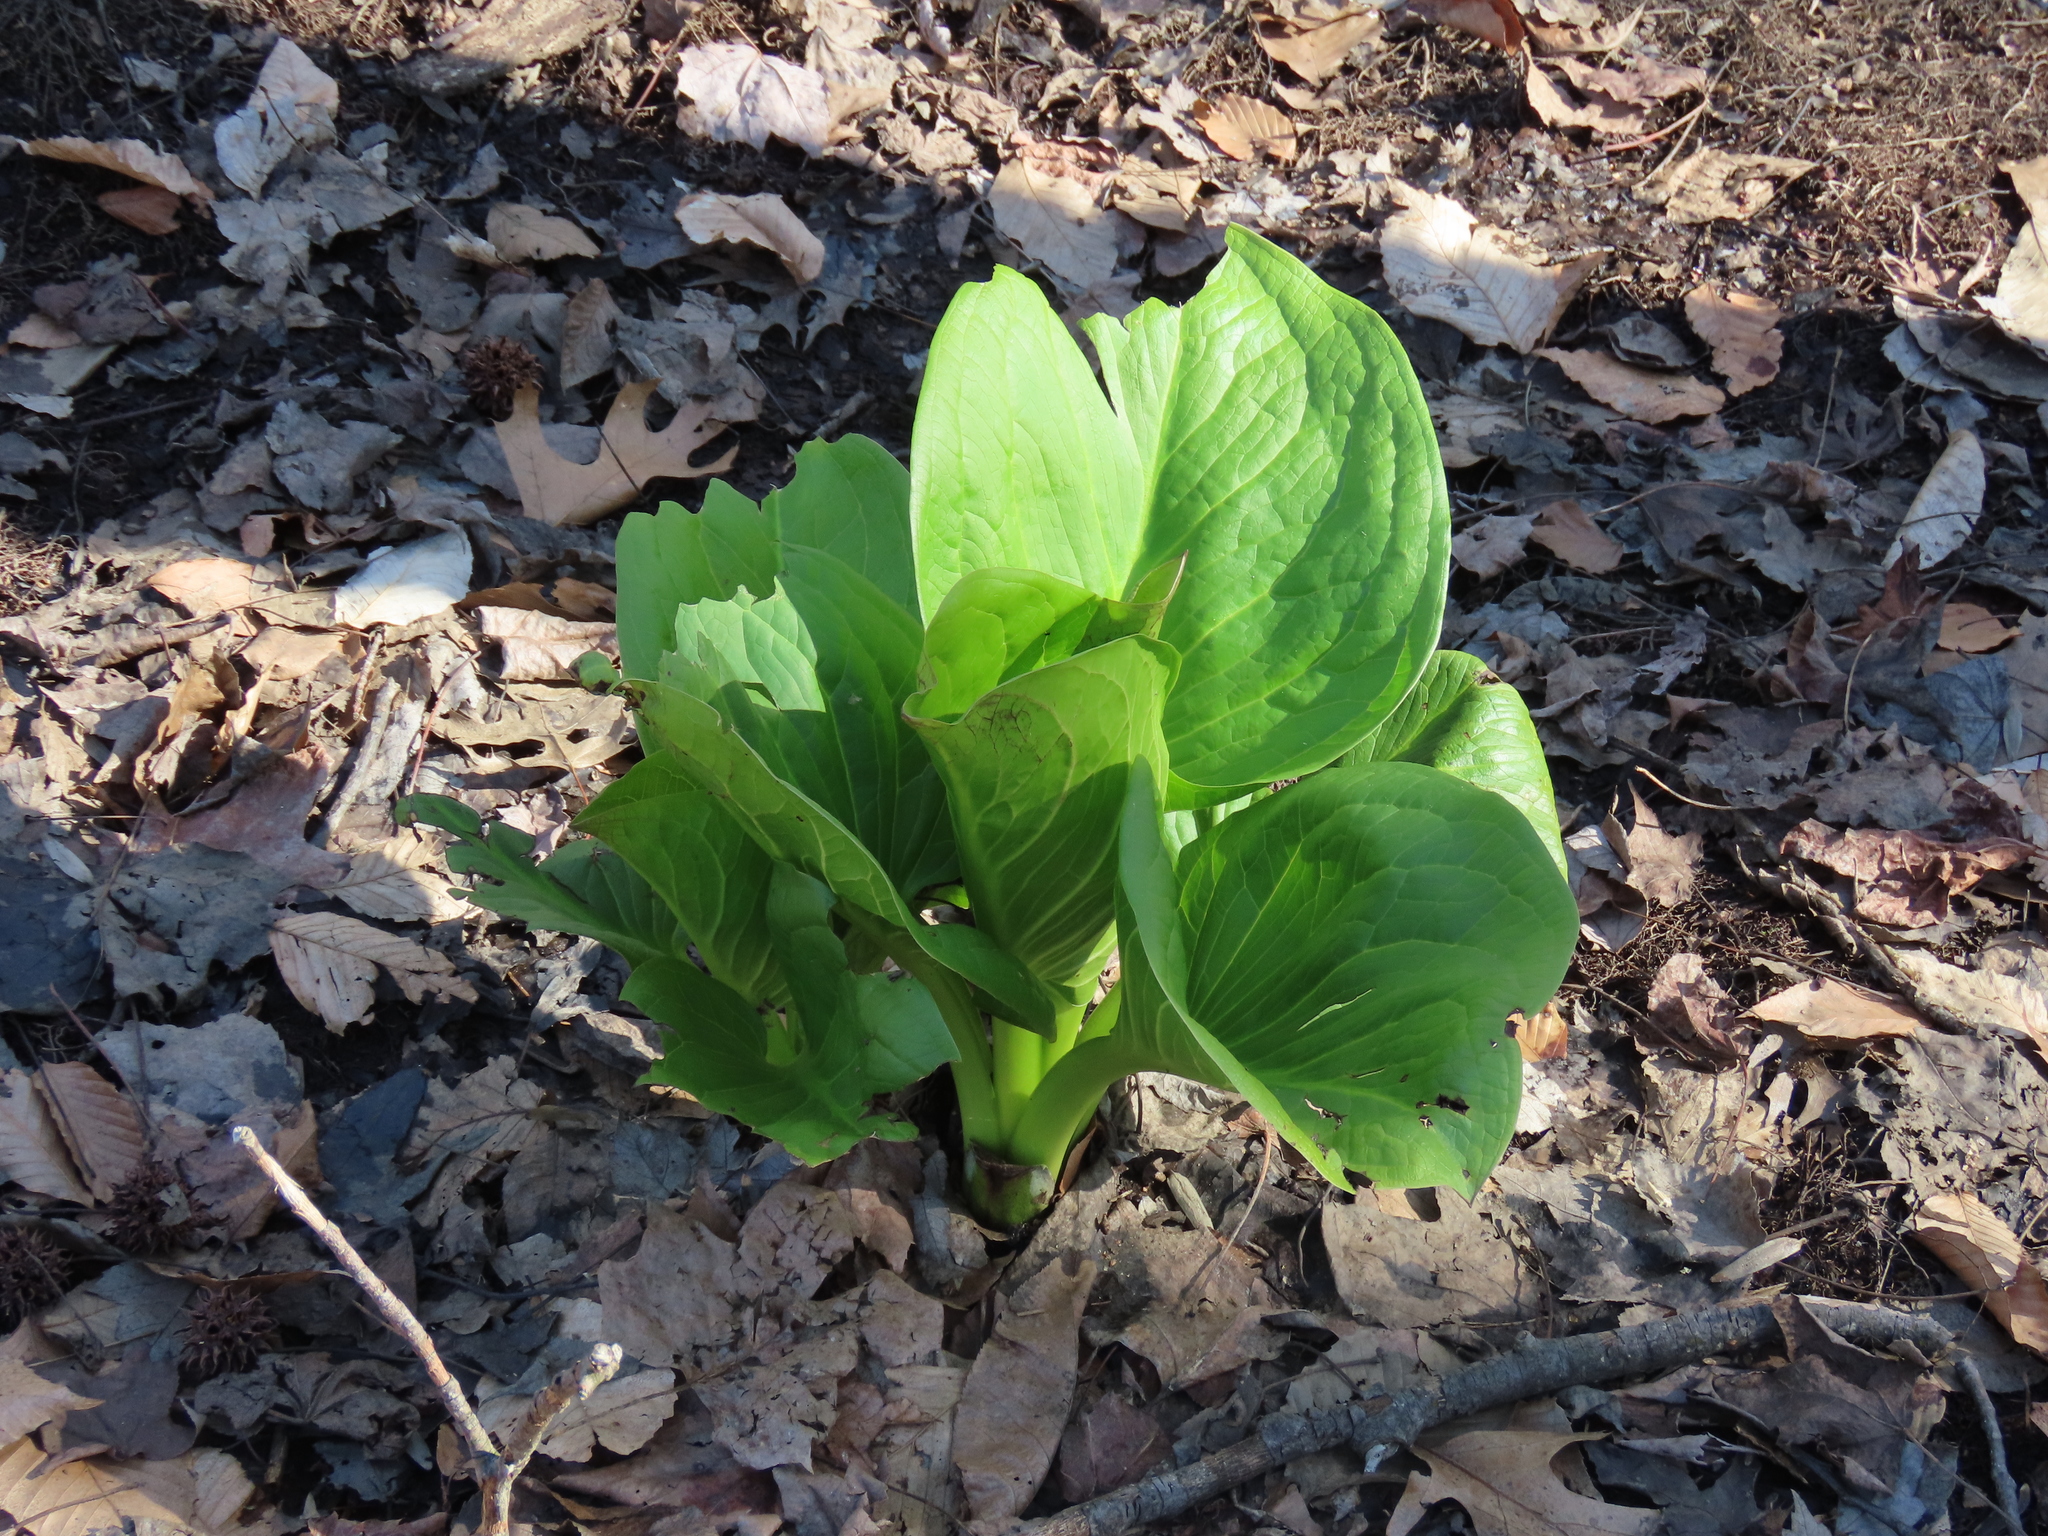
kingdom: Plantae
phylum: Tracheophyta
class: Liliopsida
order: Alismatales
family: Araceae
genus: Symplocarpus
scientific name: Symplocarpus foetidus
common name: Eastern skunk cabbage
